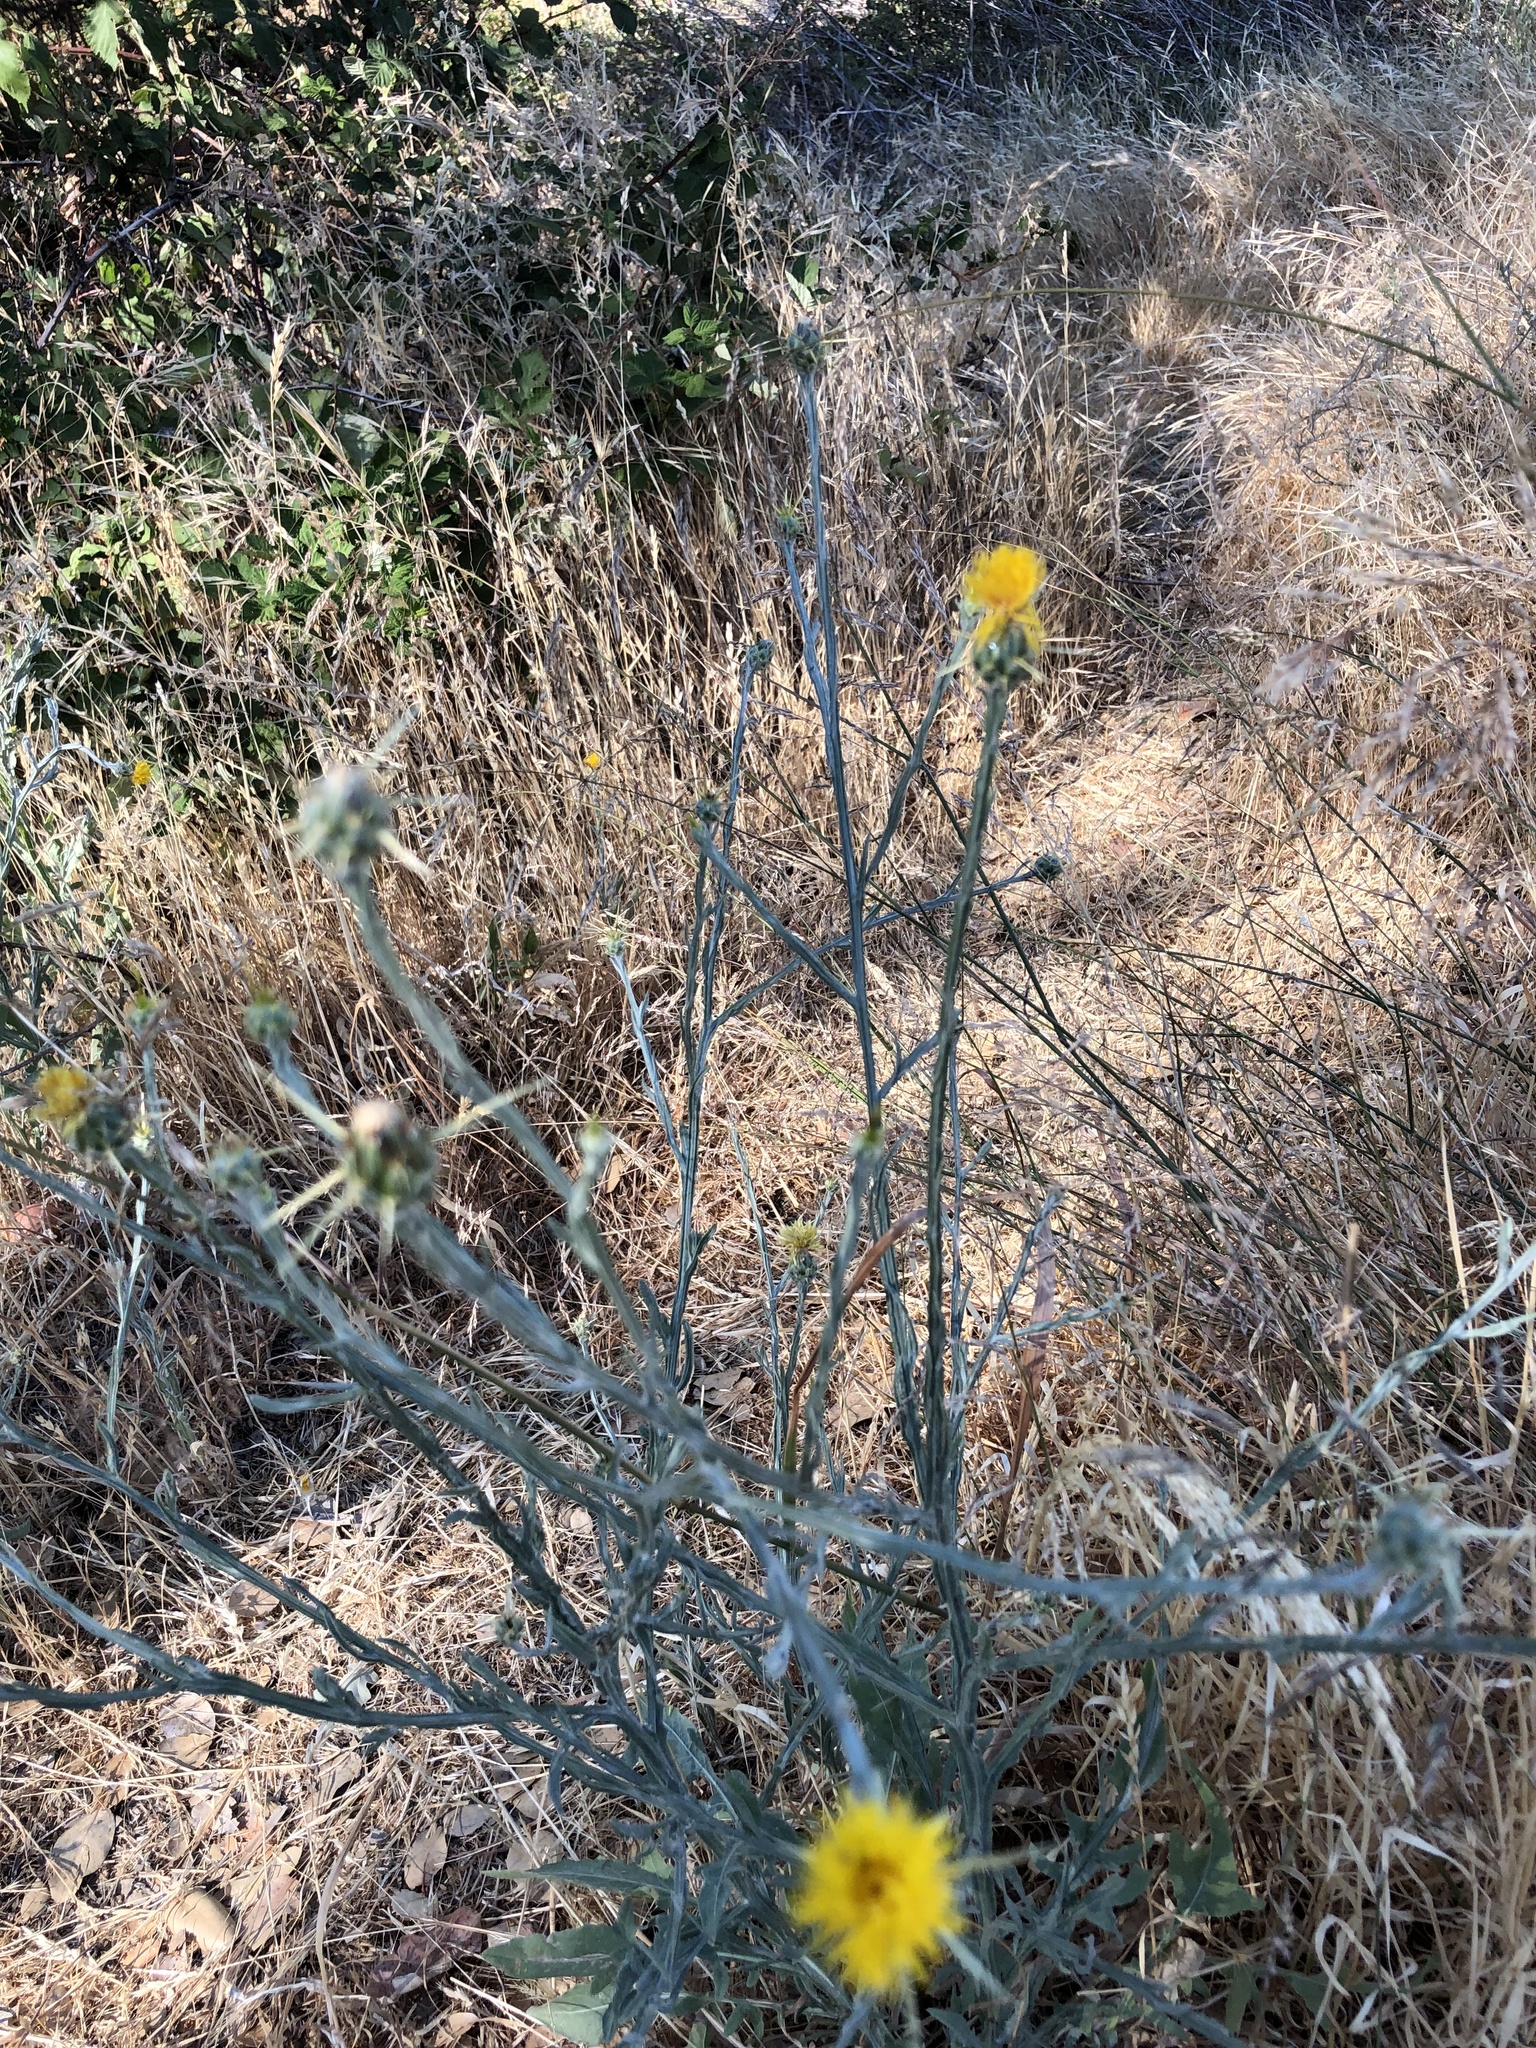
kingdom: Plantae
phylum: Tracheophyta
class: Magnoliopsida
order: Asterales
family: Asteraceae
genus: Centaurea
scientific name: Centaurea solstitialis
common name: Yellow star-thistle
